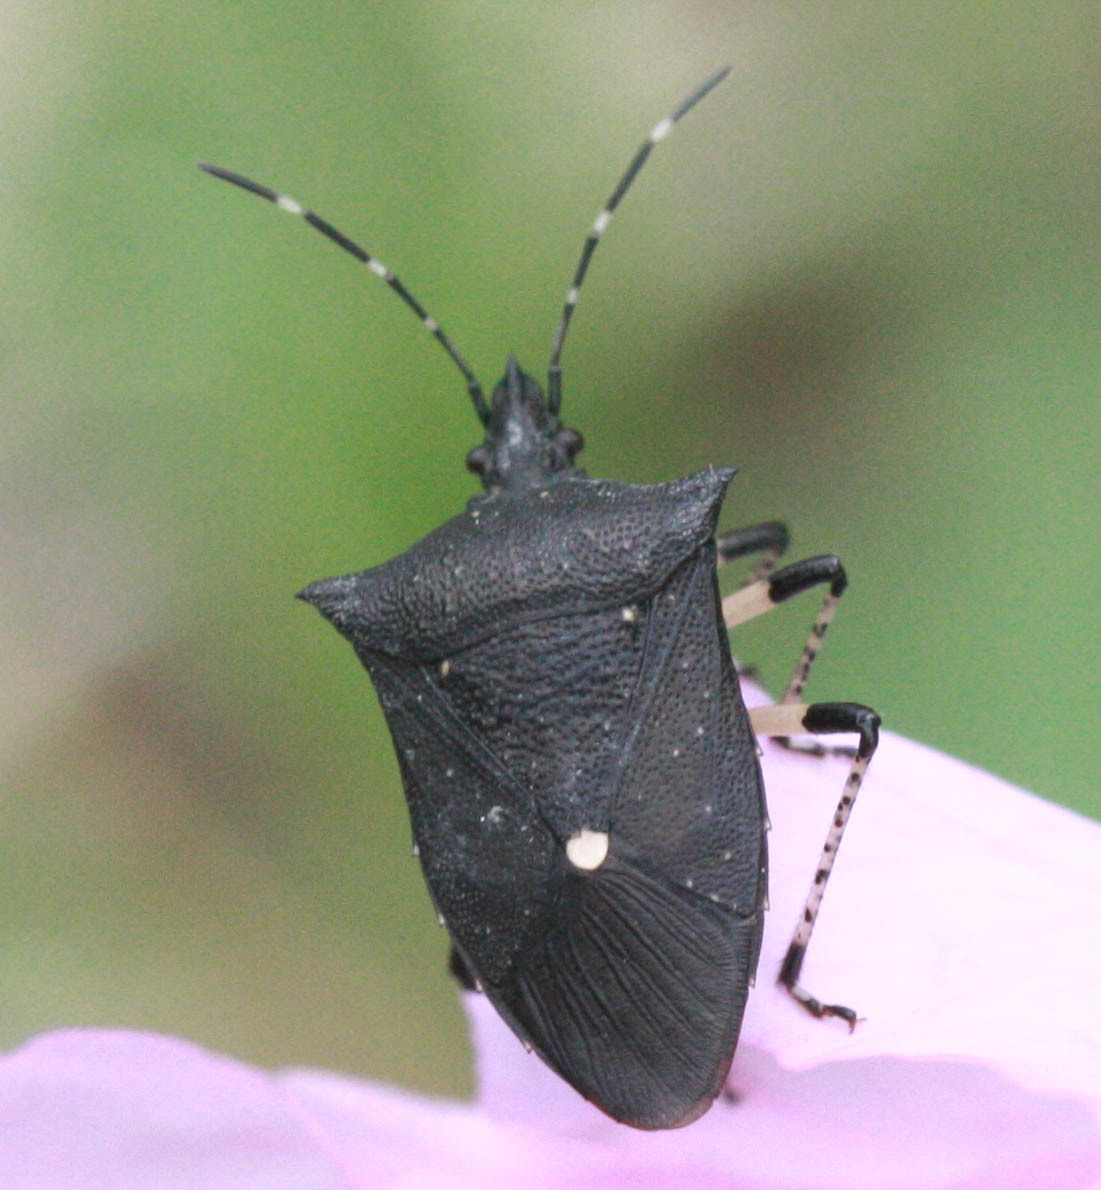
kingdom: Animalia
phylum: Arthropoda
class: Insecta
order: Hemiptera
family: Pentatomidae
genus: Proxys
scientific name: Proxys punctulatus
